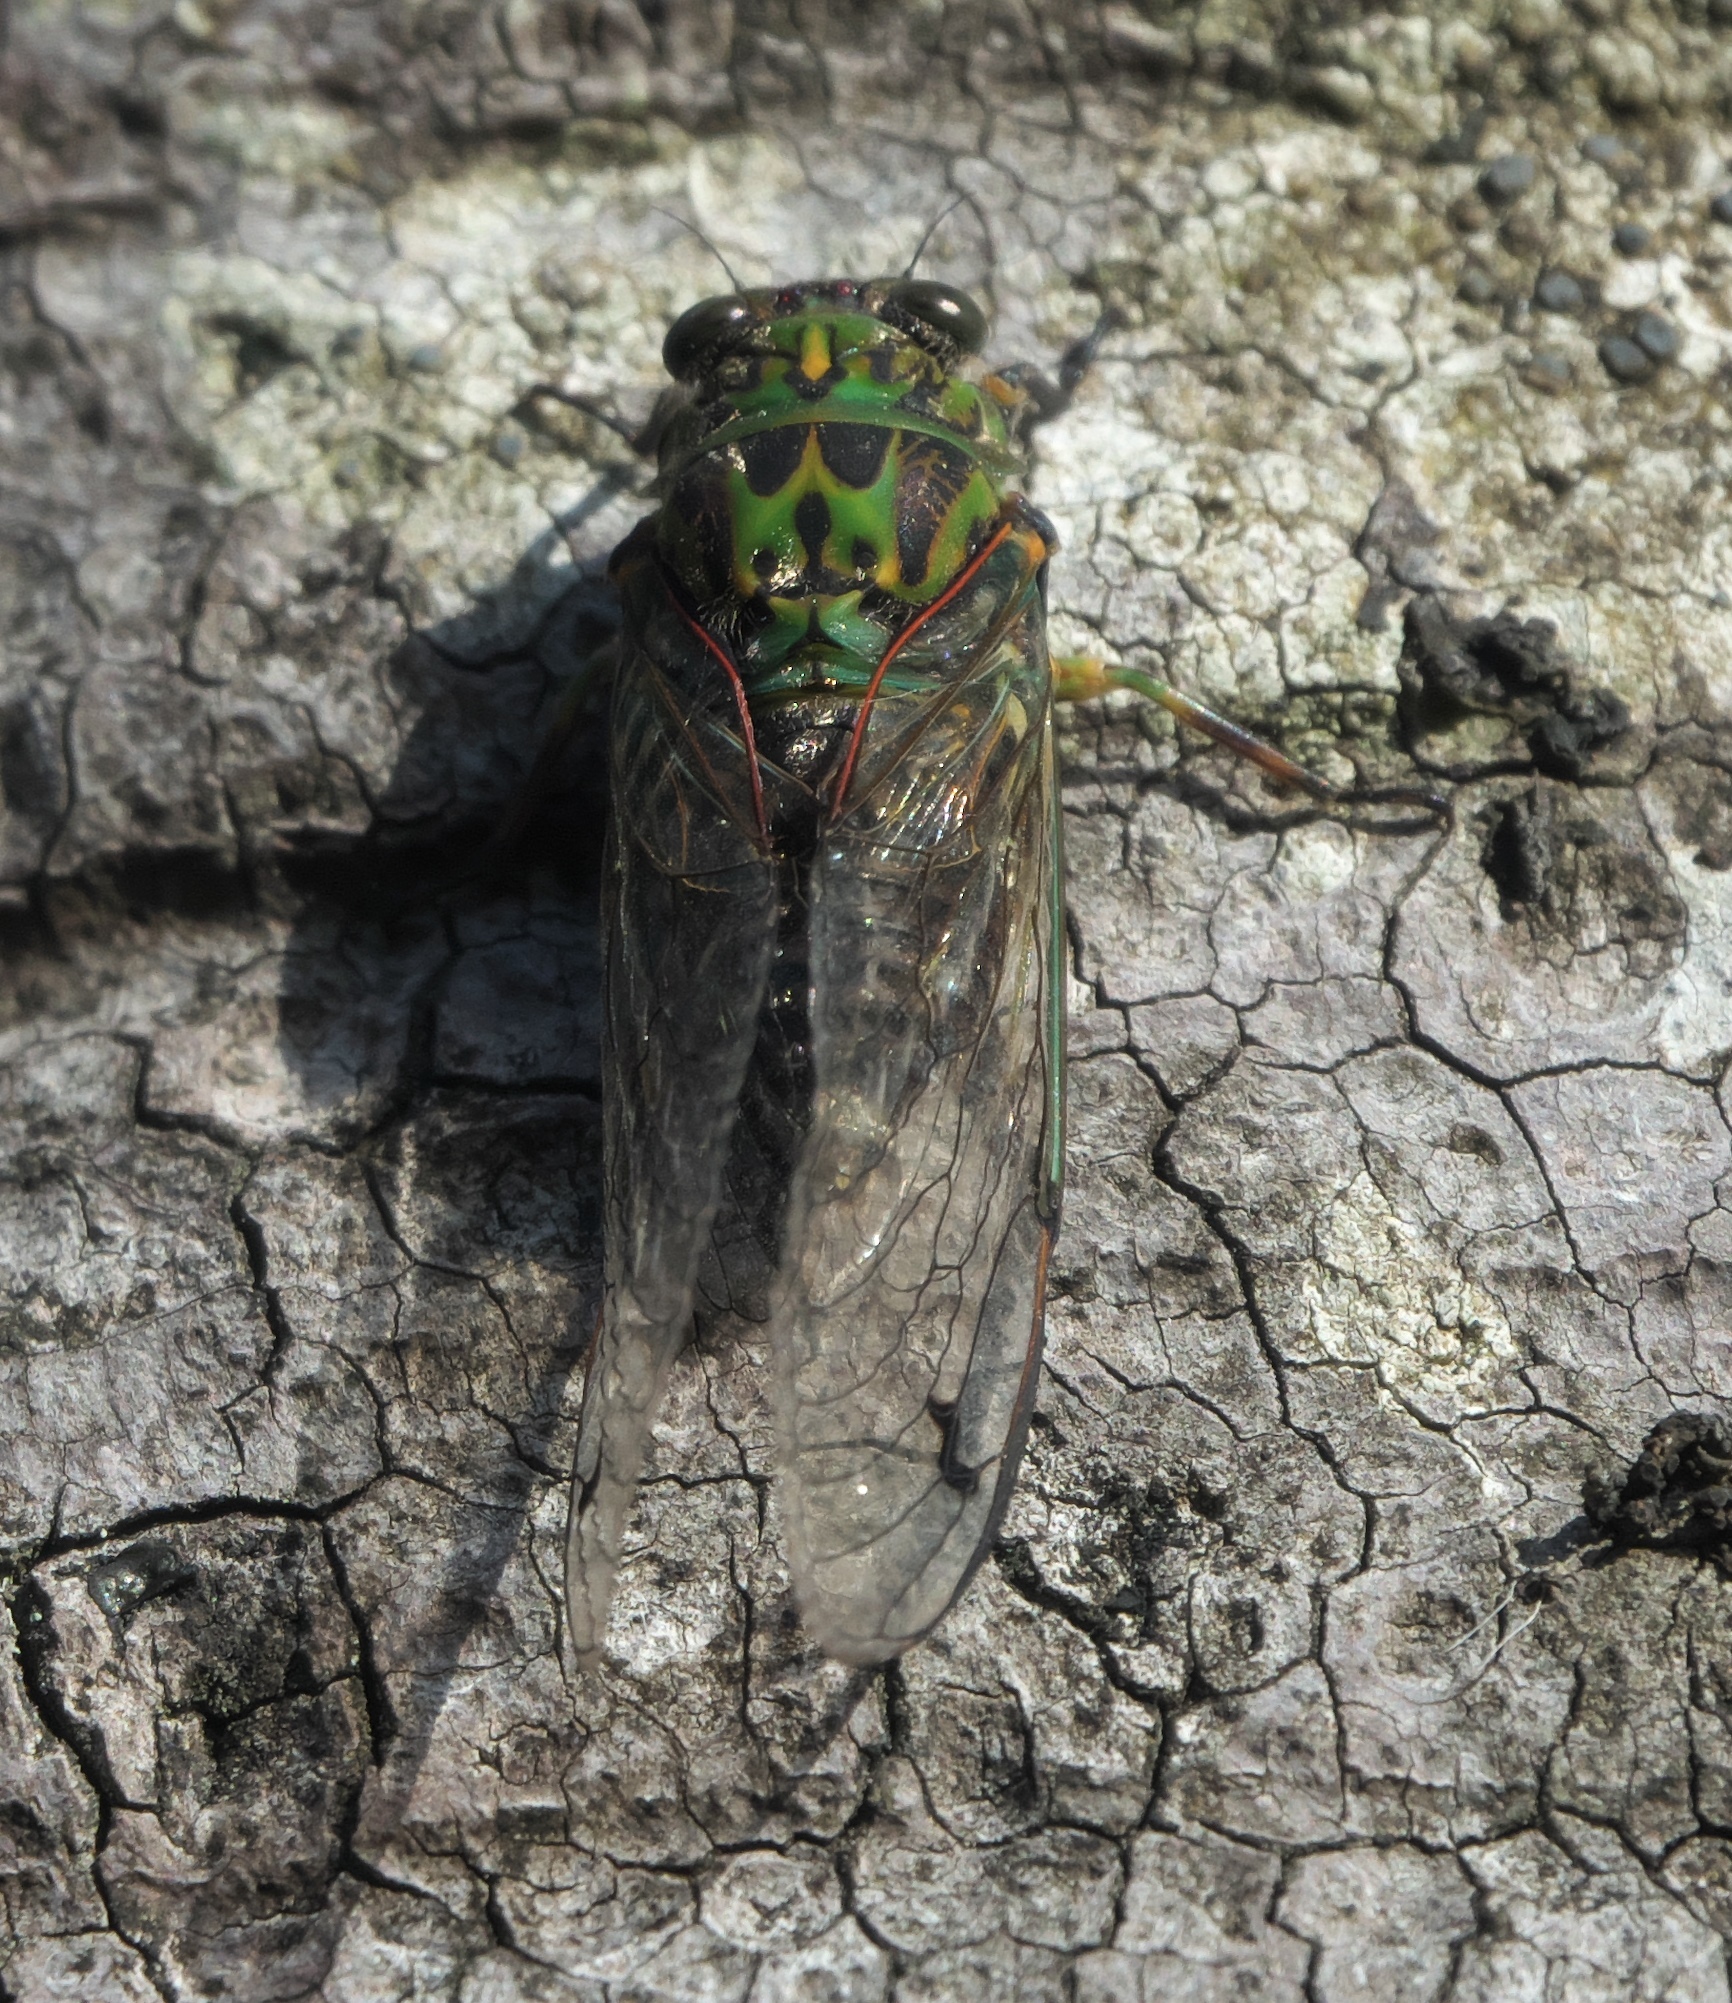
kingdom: Animalia
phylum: Arthropoda
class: Insecta
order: Hemiptera
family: Cicadidae
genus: Amphipsalta
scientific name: Amphipsalta zelandica
